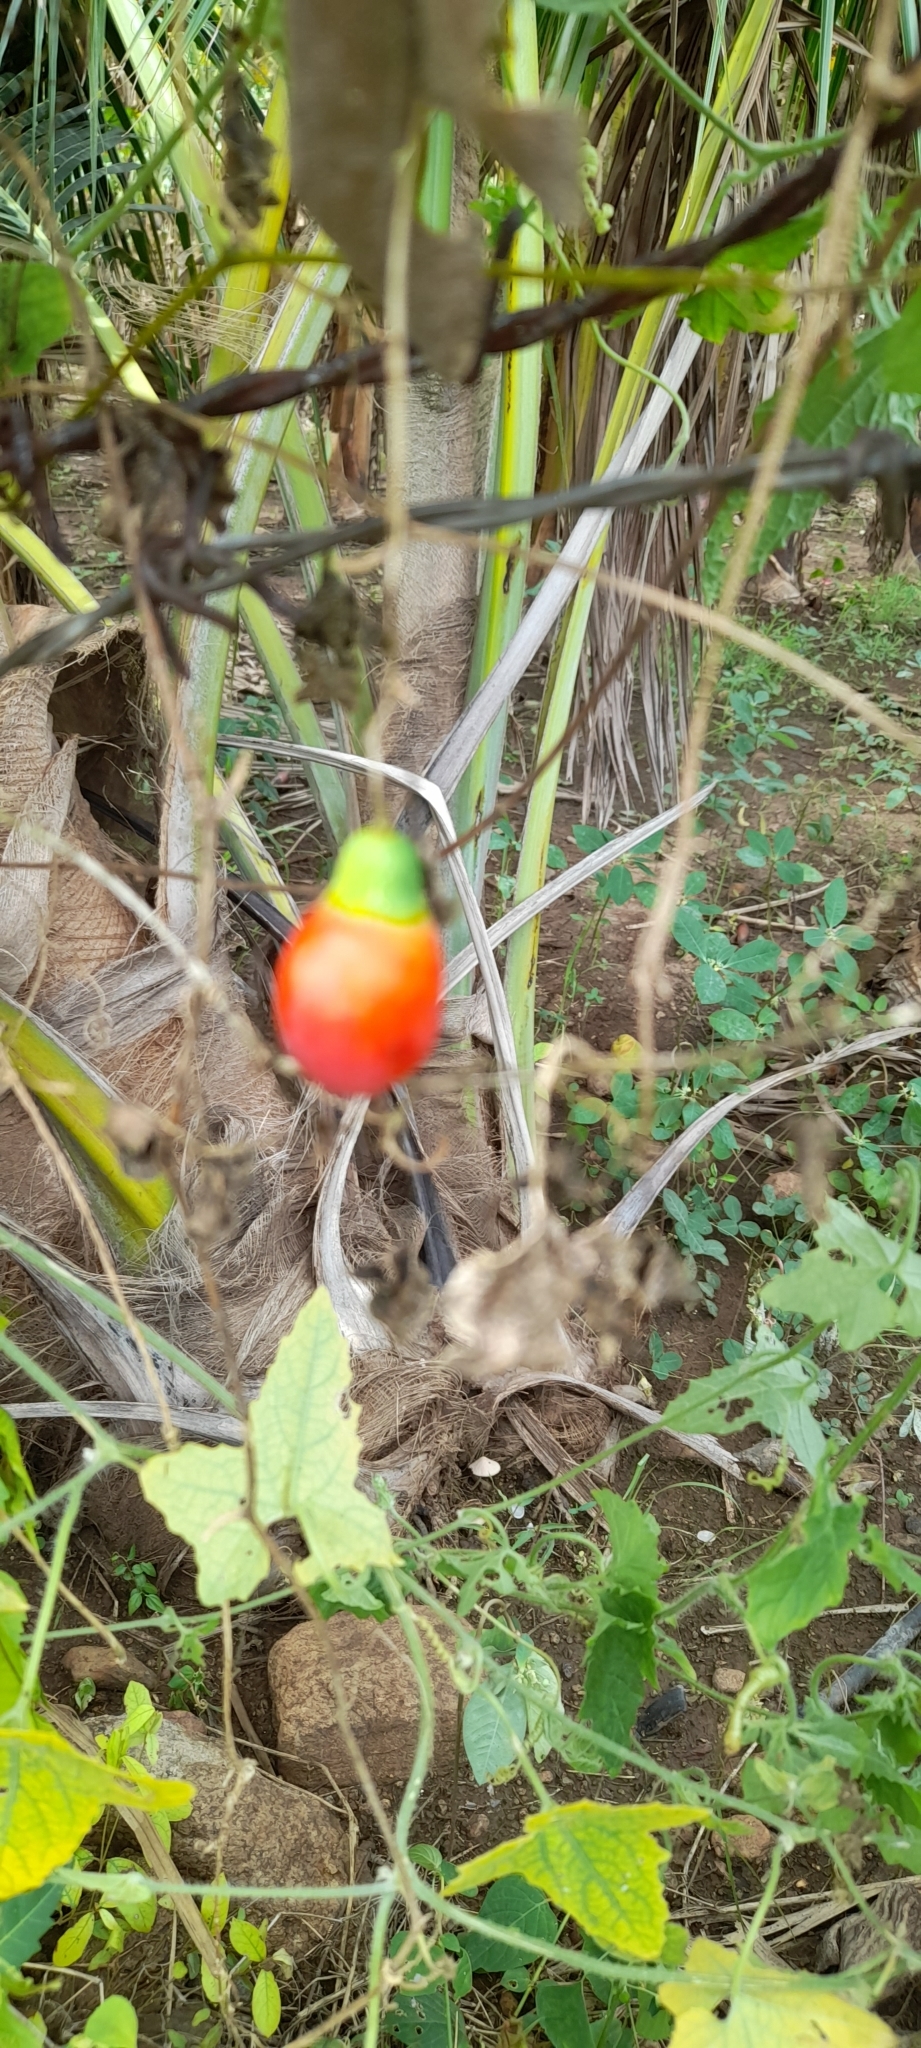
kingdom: Plantae
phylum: Tracheophyta
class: Magnoliopsida
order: Cucurbitales
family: Cucurbitaceae
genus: Coccinia
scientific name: Coccinia grandis
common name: Ivy gourd
